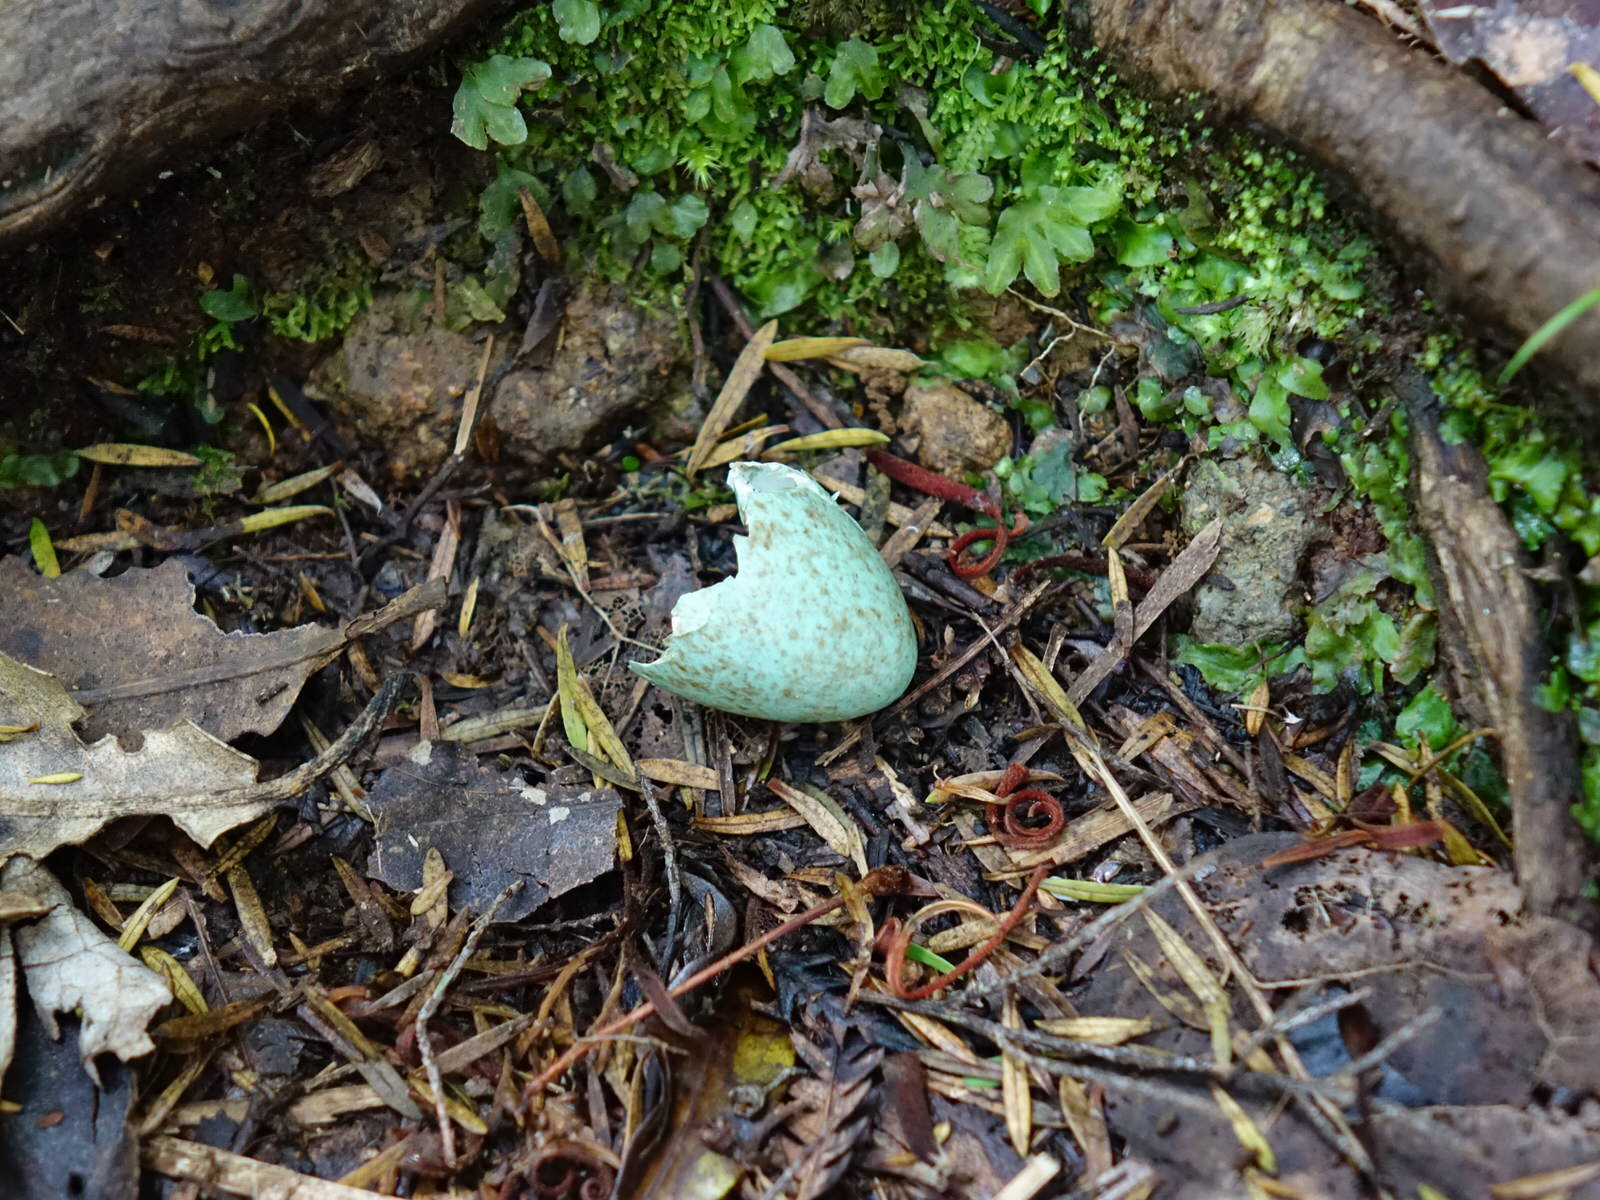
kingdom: Animalia
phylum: Chordata
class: Aves
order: Passeriformes
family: Turdidae
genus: Turdus
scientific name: Turdus merula
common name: Common blackbird
